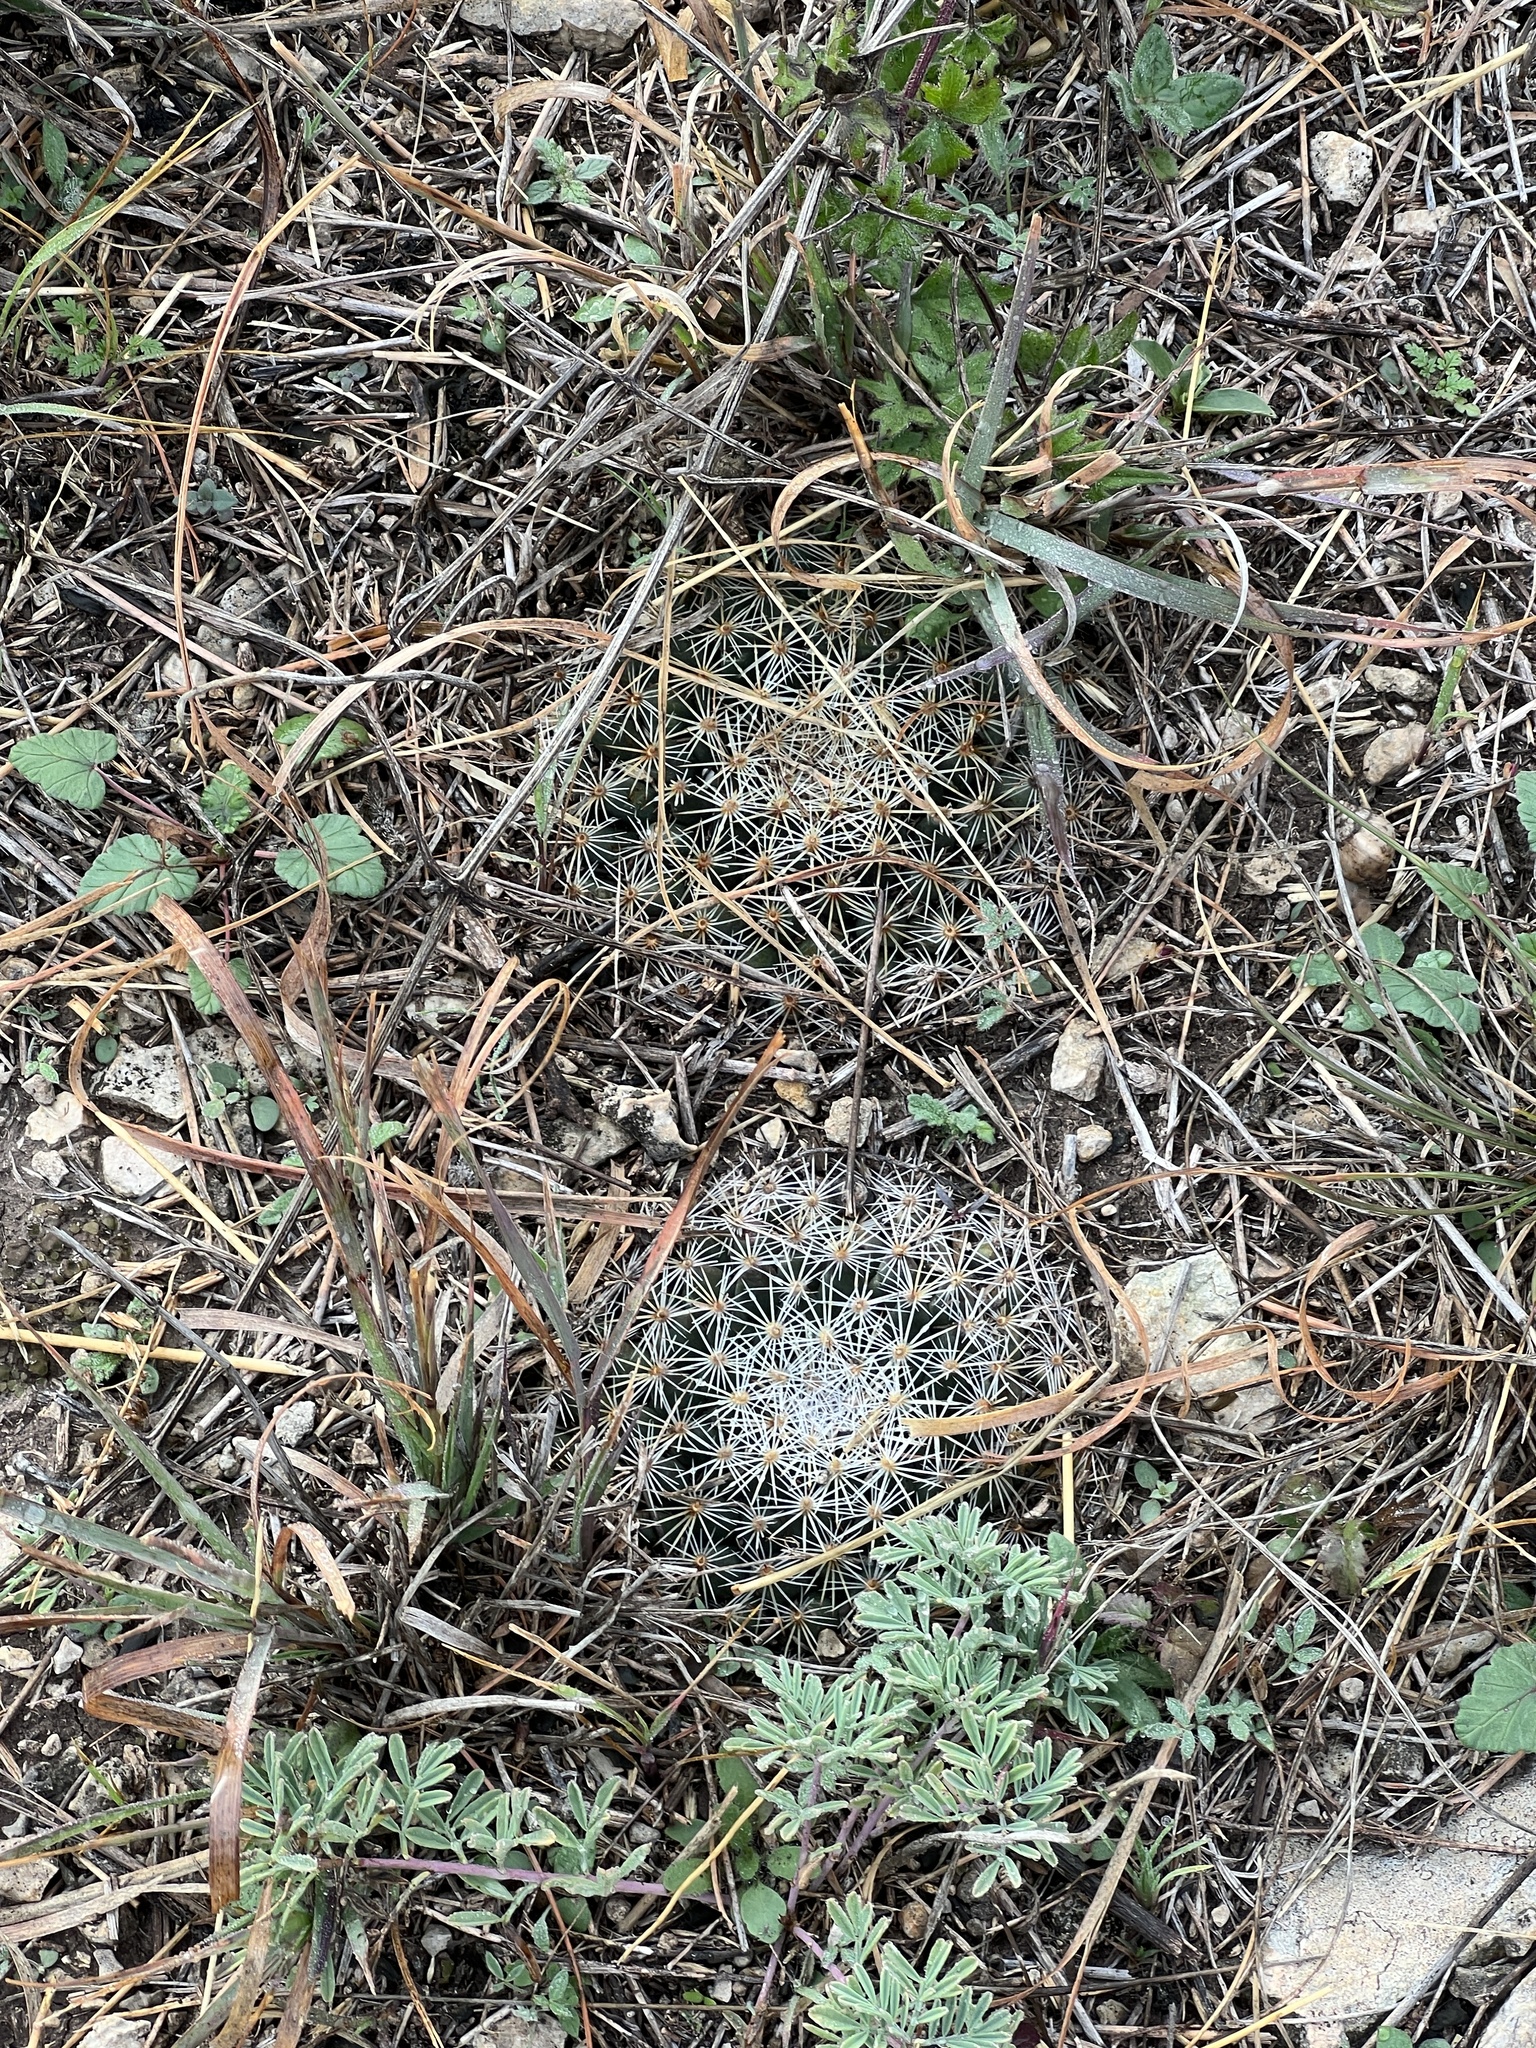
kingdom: Plantae
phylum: Tracheophyta
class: Magnoliopsida
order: Caryophyllales
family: Cactaceae
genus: Mammillaria
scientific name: Mammillaria heyderi
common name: Little nipple cactus
